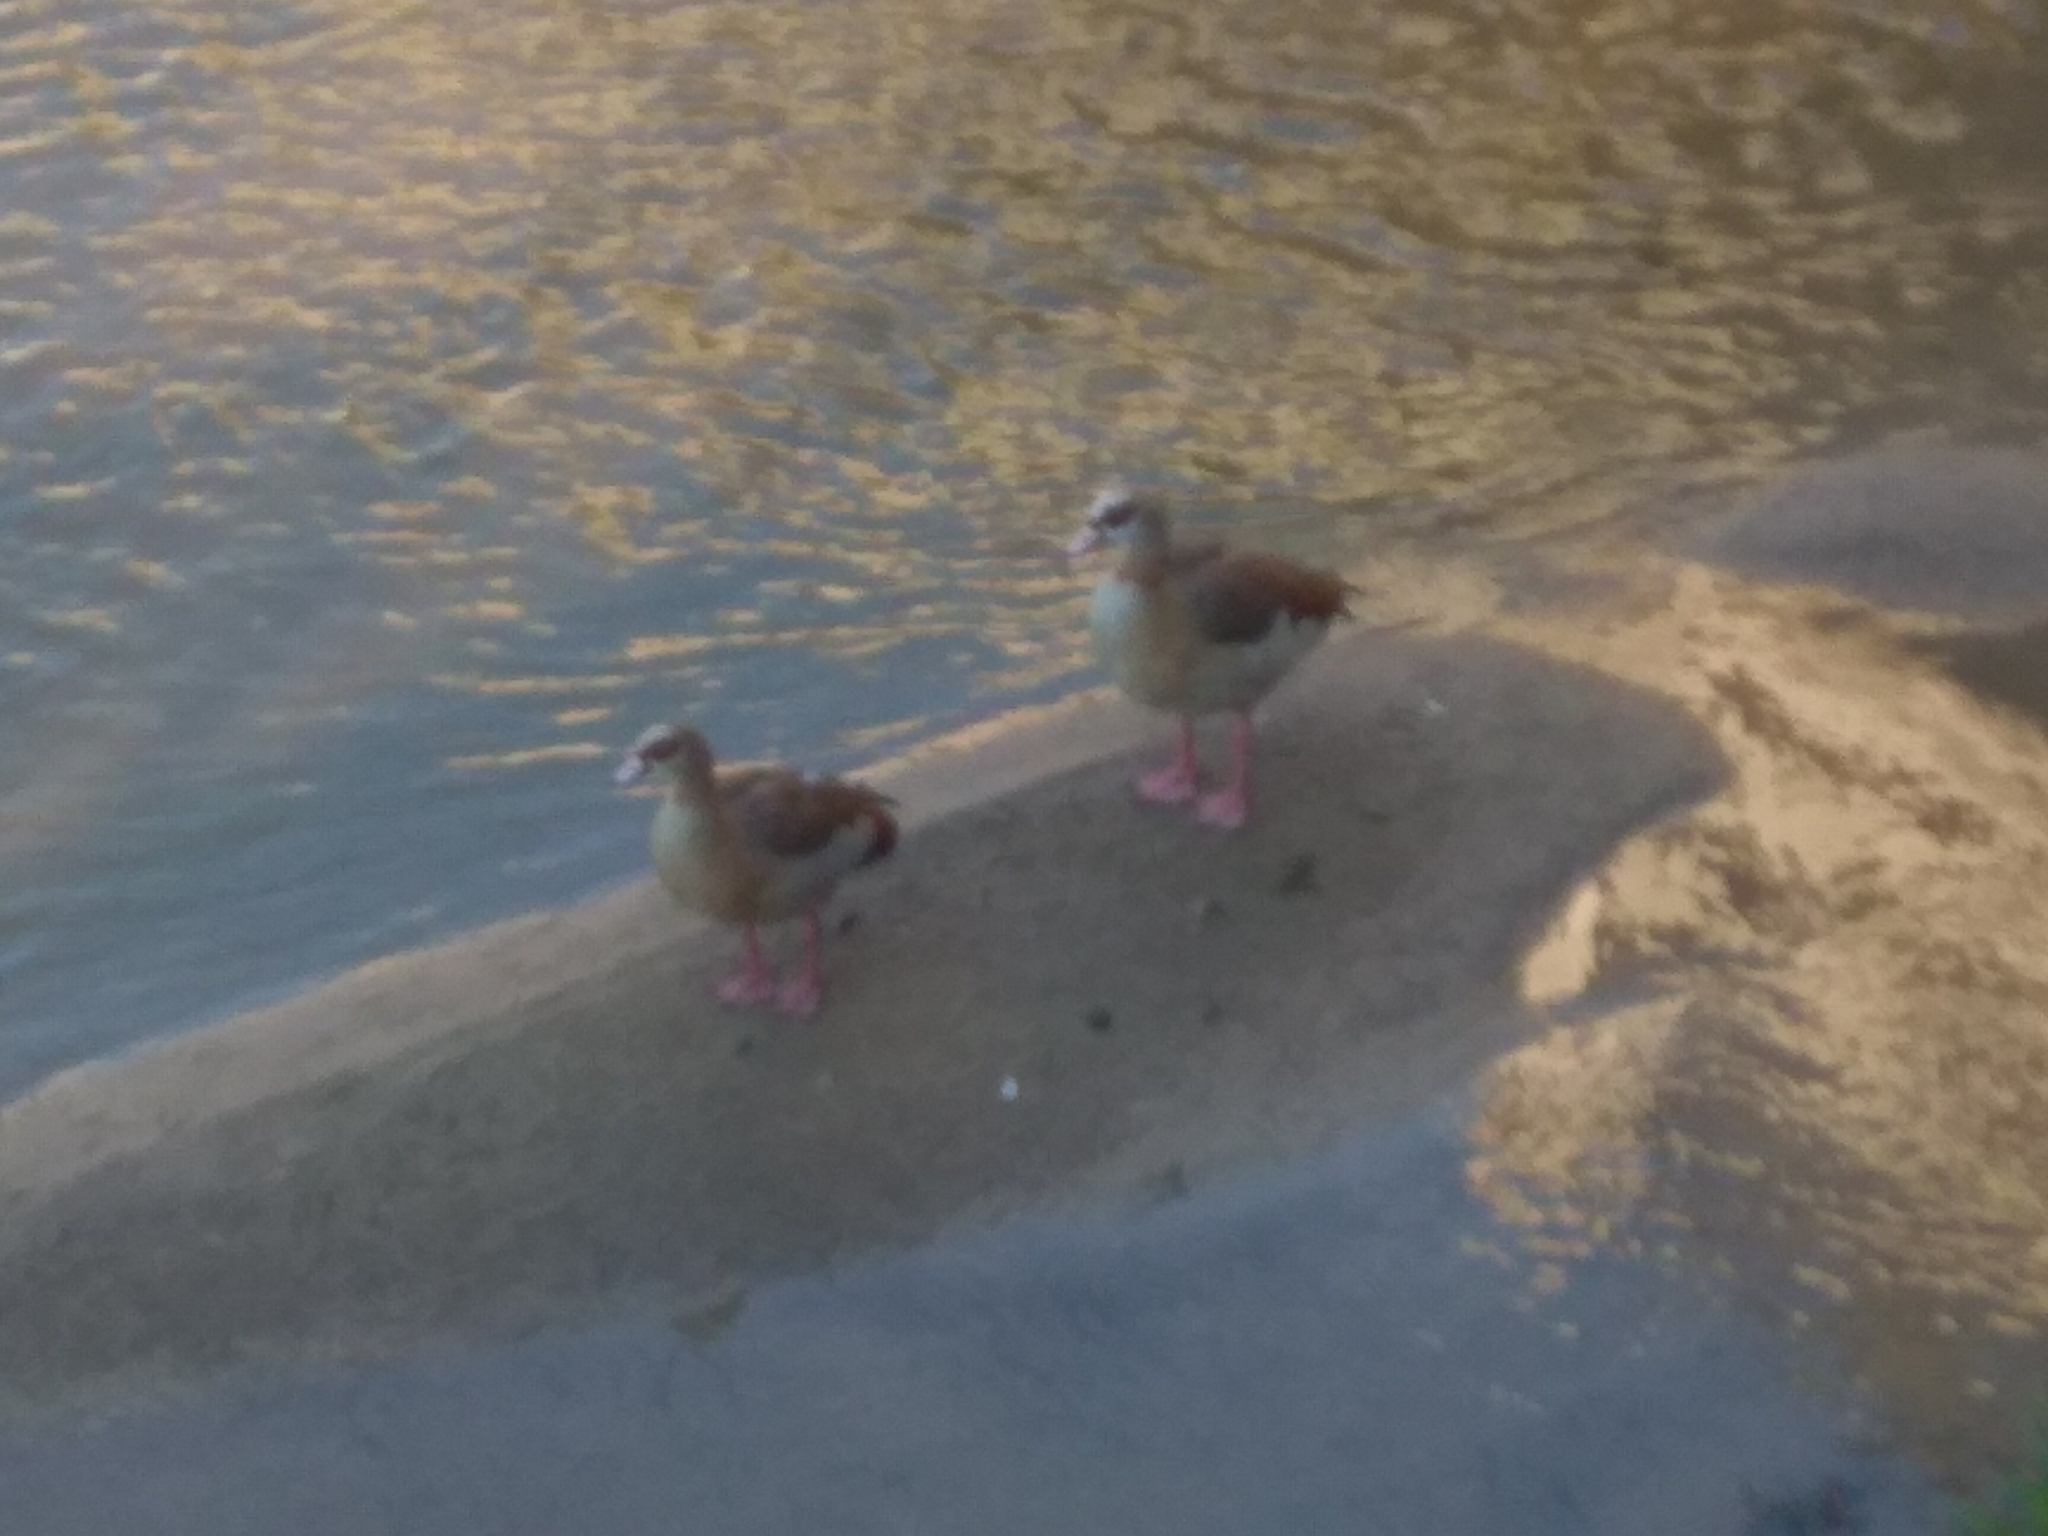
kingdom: Animalia
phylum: Chordata
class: Aves
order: Anseriformes
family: Anatidae
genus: Alopochen
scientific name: Alopochen aegyptiaca
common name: Egyptian goose
